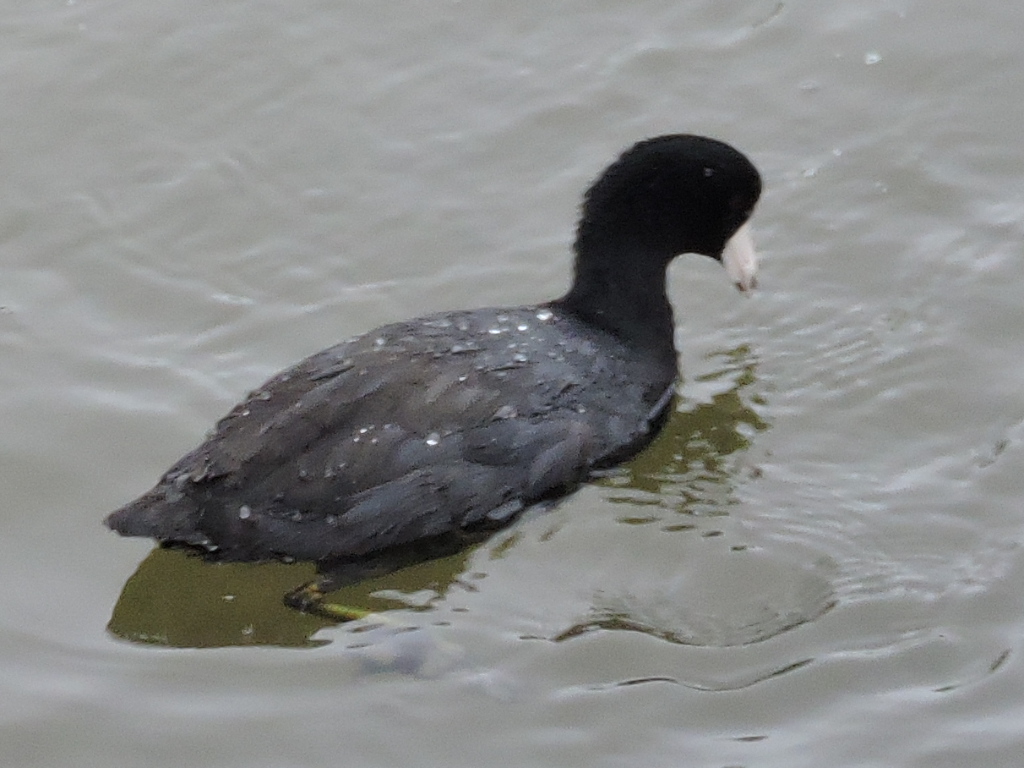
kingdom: Animalia
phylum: Chordata
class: Aves
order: Gruiformes
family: Rallidae
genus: Fulica
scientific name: Fulica americana
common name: American coot
